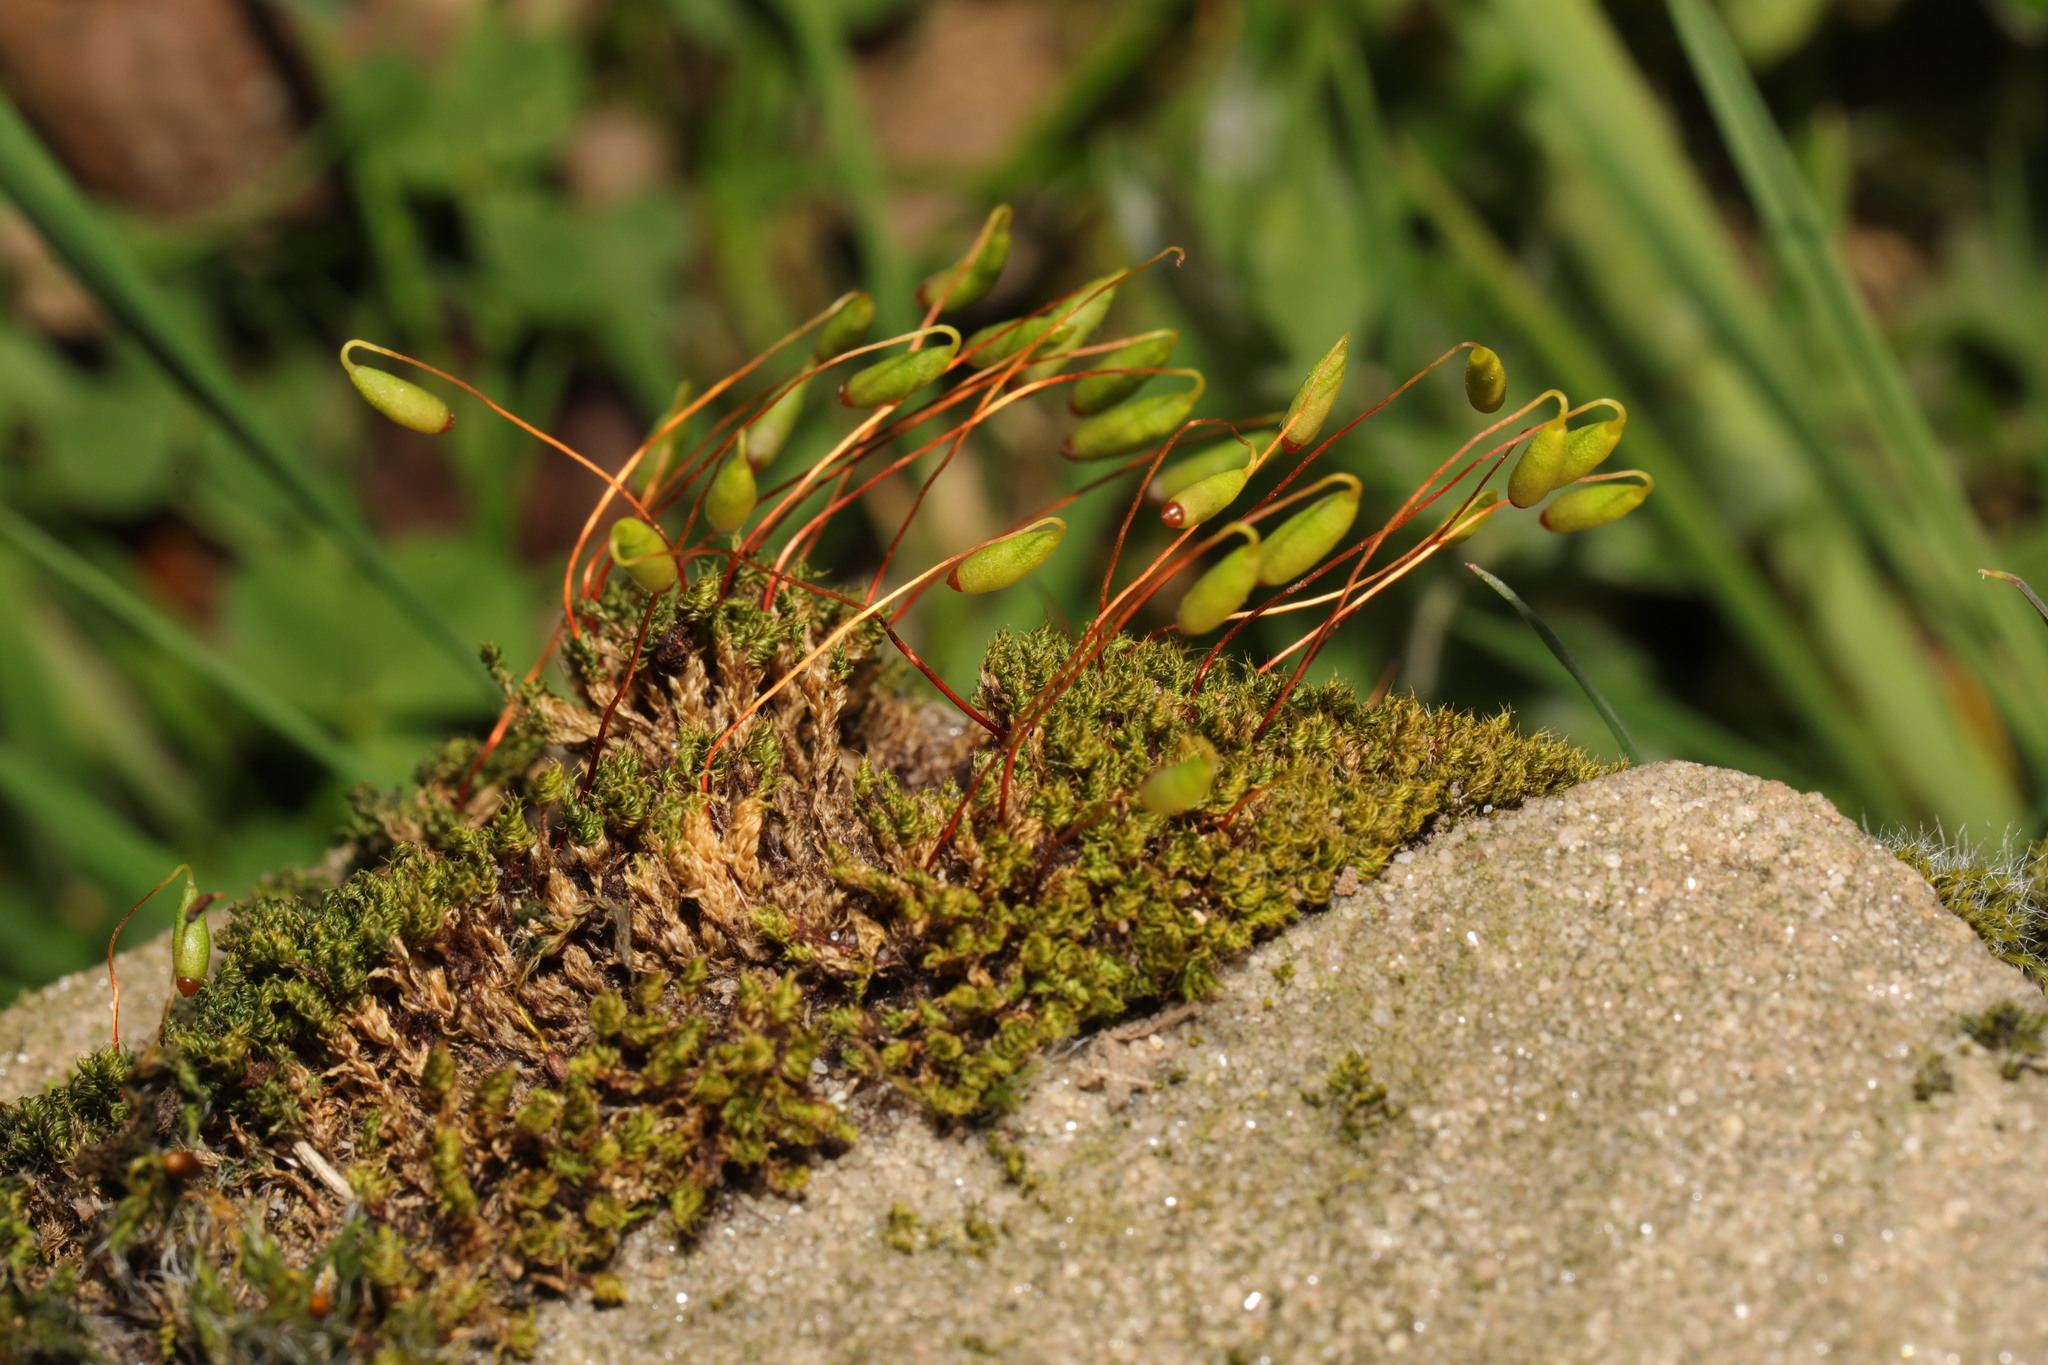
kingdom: Plantae
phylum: Bryophyta
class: Bryopsida
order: Bryales
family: Bryaceae
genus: Rosulabryum
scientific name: Rosulabryum capillare
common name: Capillary thread-moss
